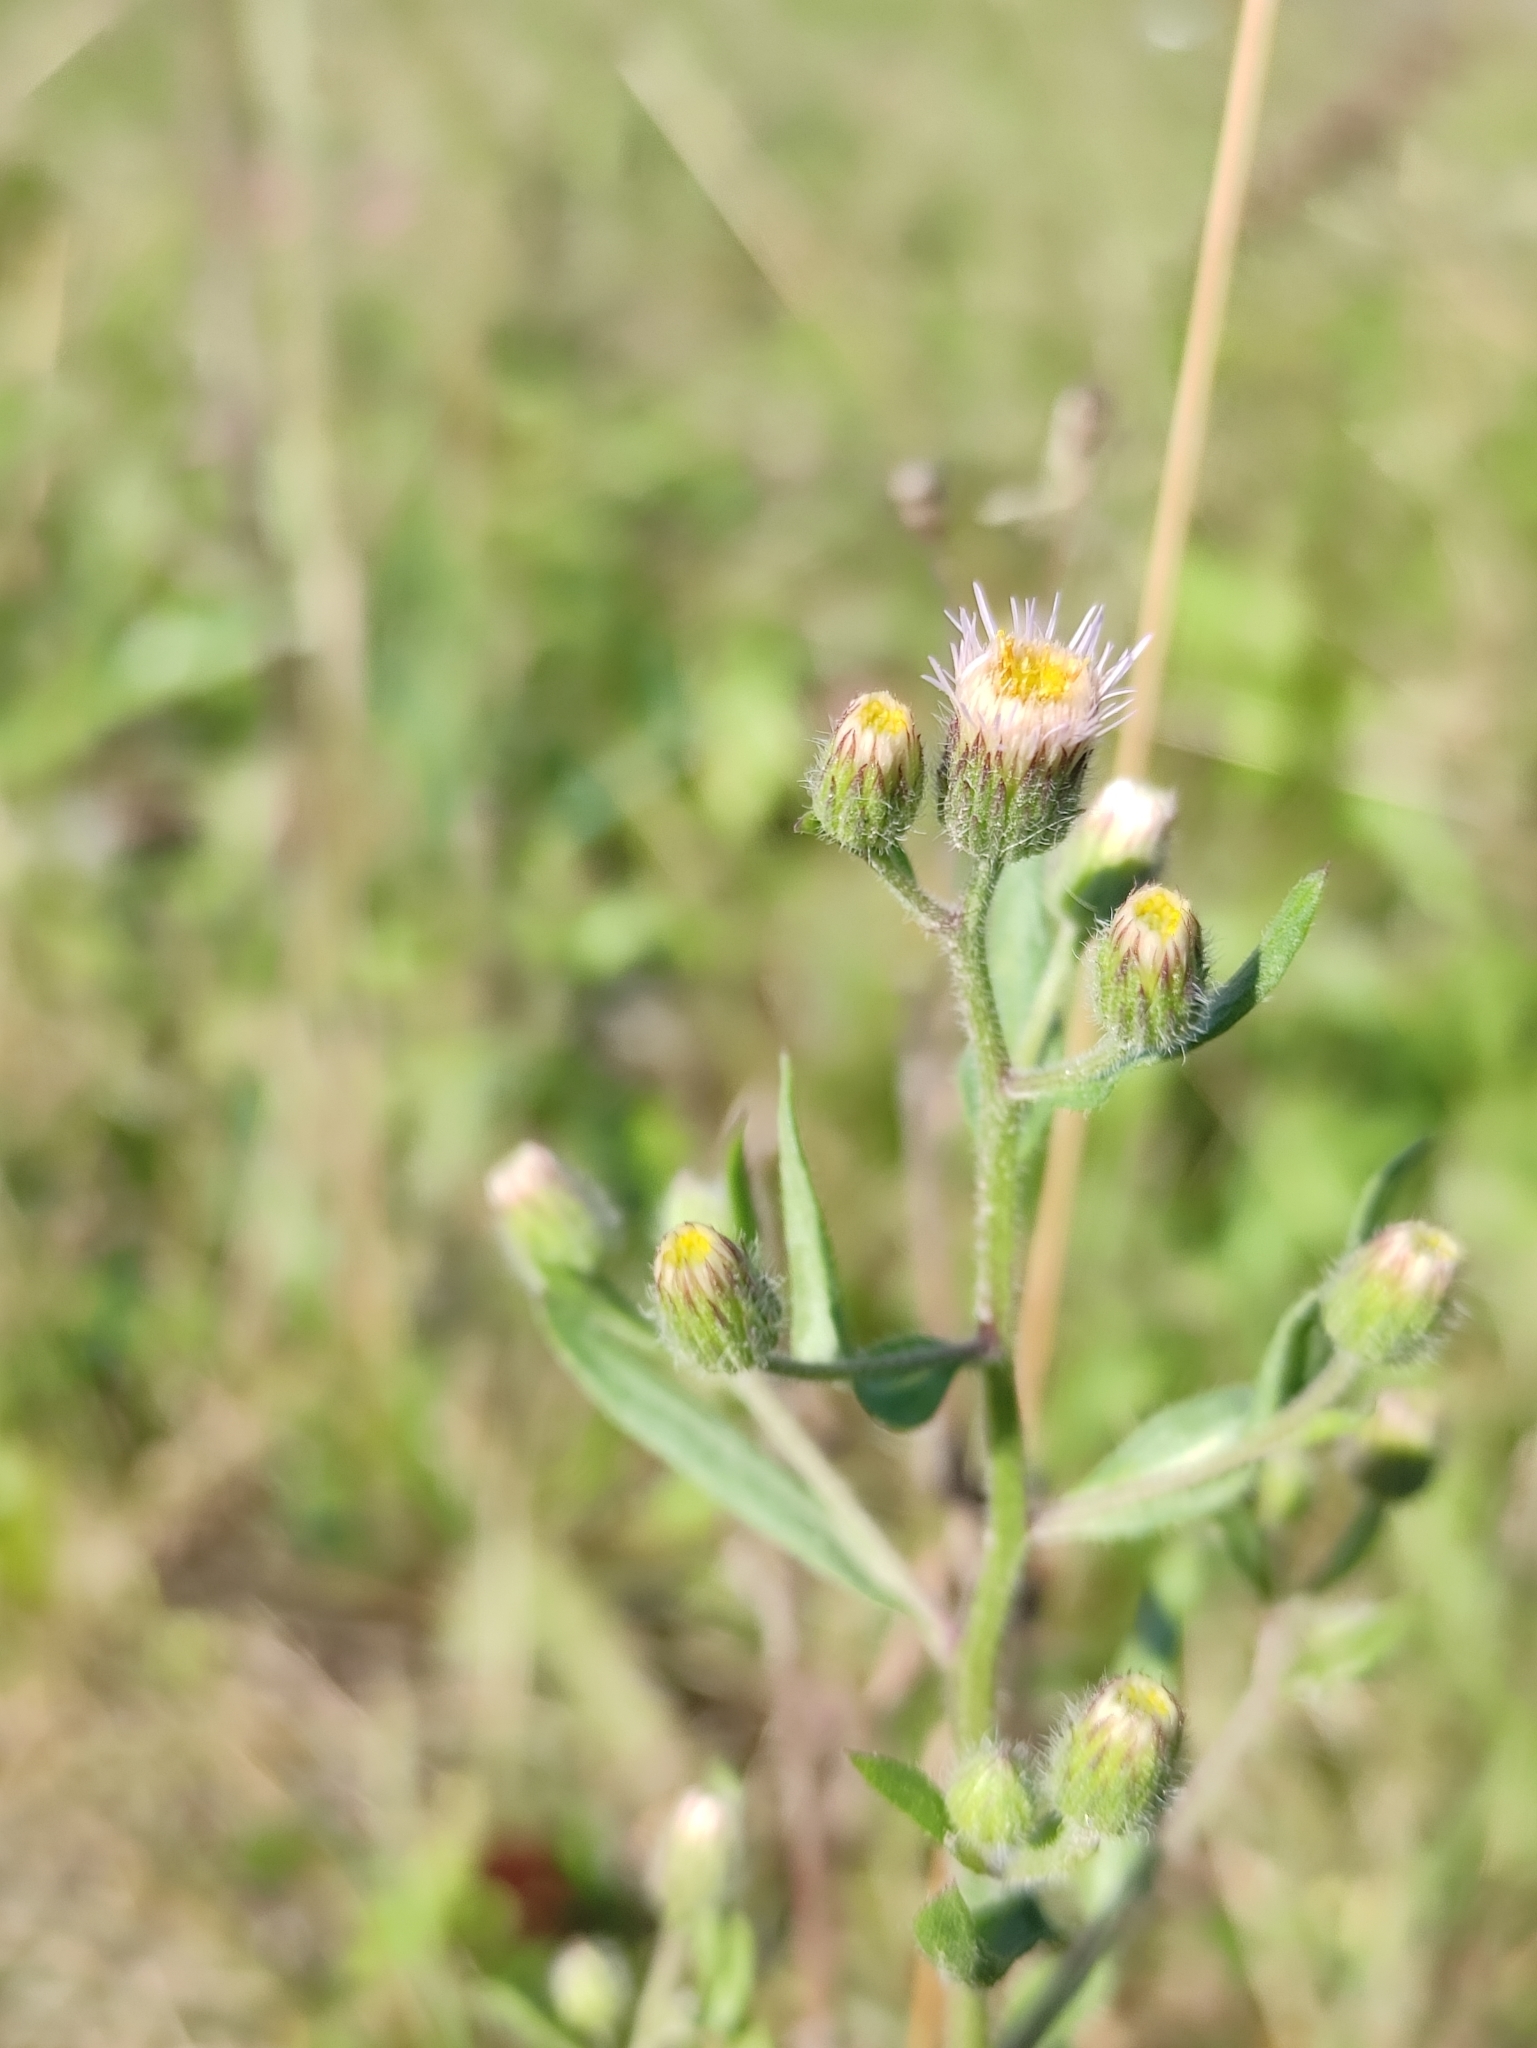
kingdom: Plantae
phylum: Tracheophyta
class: Magnoliopsida
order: Asterales
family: Asteraceae
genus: Erigeron
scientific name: Erigeron acris
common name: Blue fleabane
